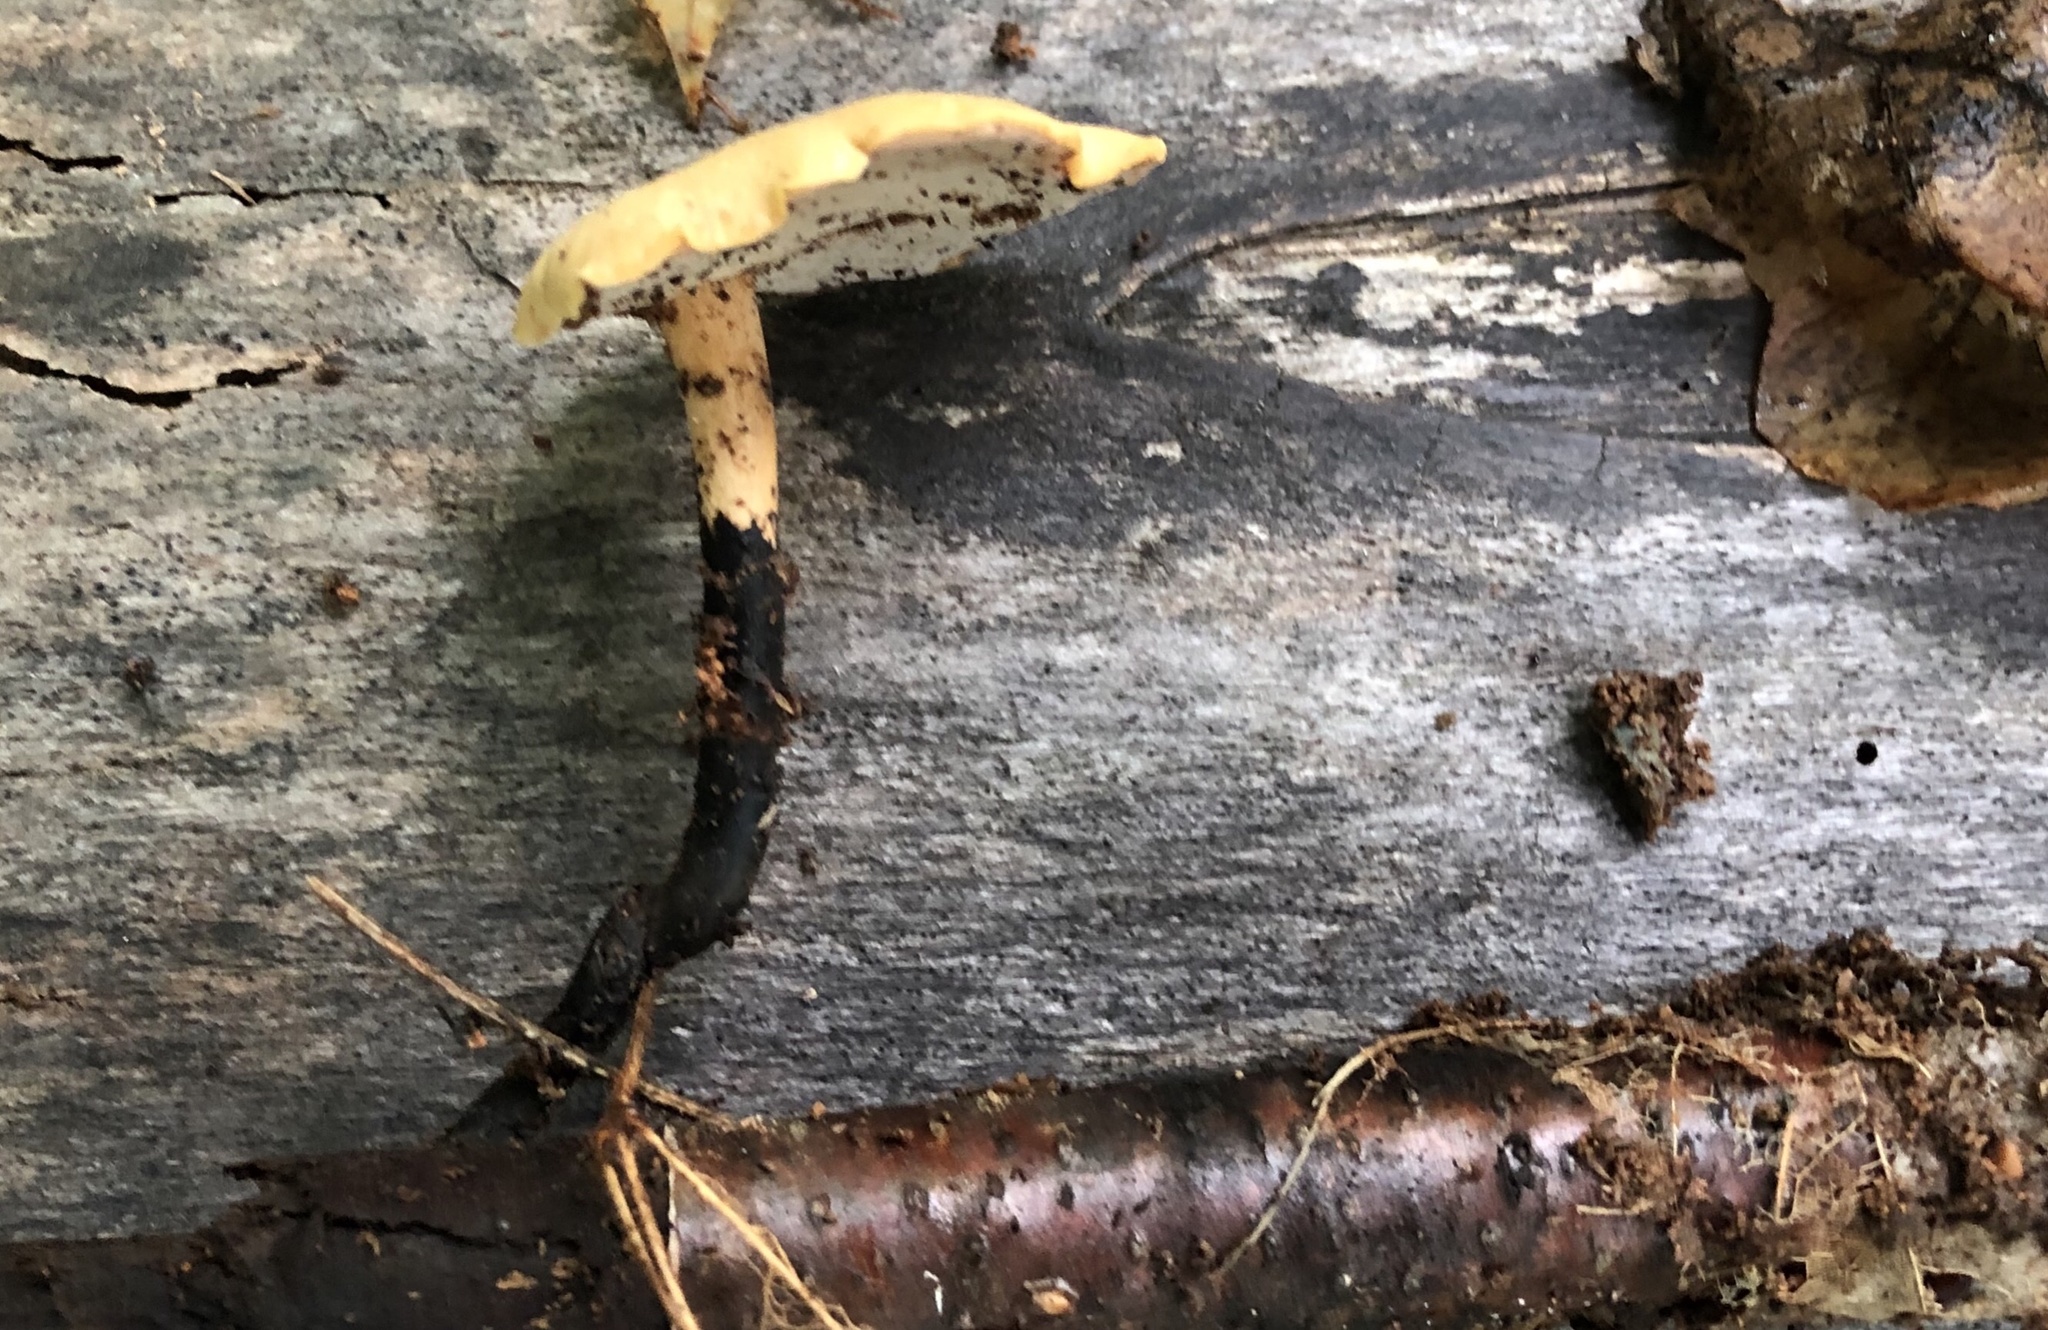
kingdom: Fungi
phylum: Basidiomycota
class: Agaricomycetes
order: Polyporales
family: Polyporaceae
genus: Cerioporus
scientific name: Cerioporus varius
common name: Elegant polypore
